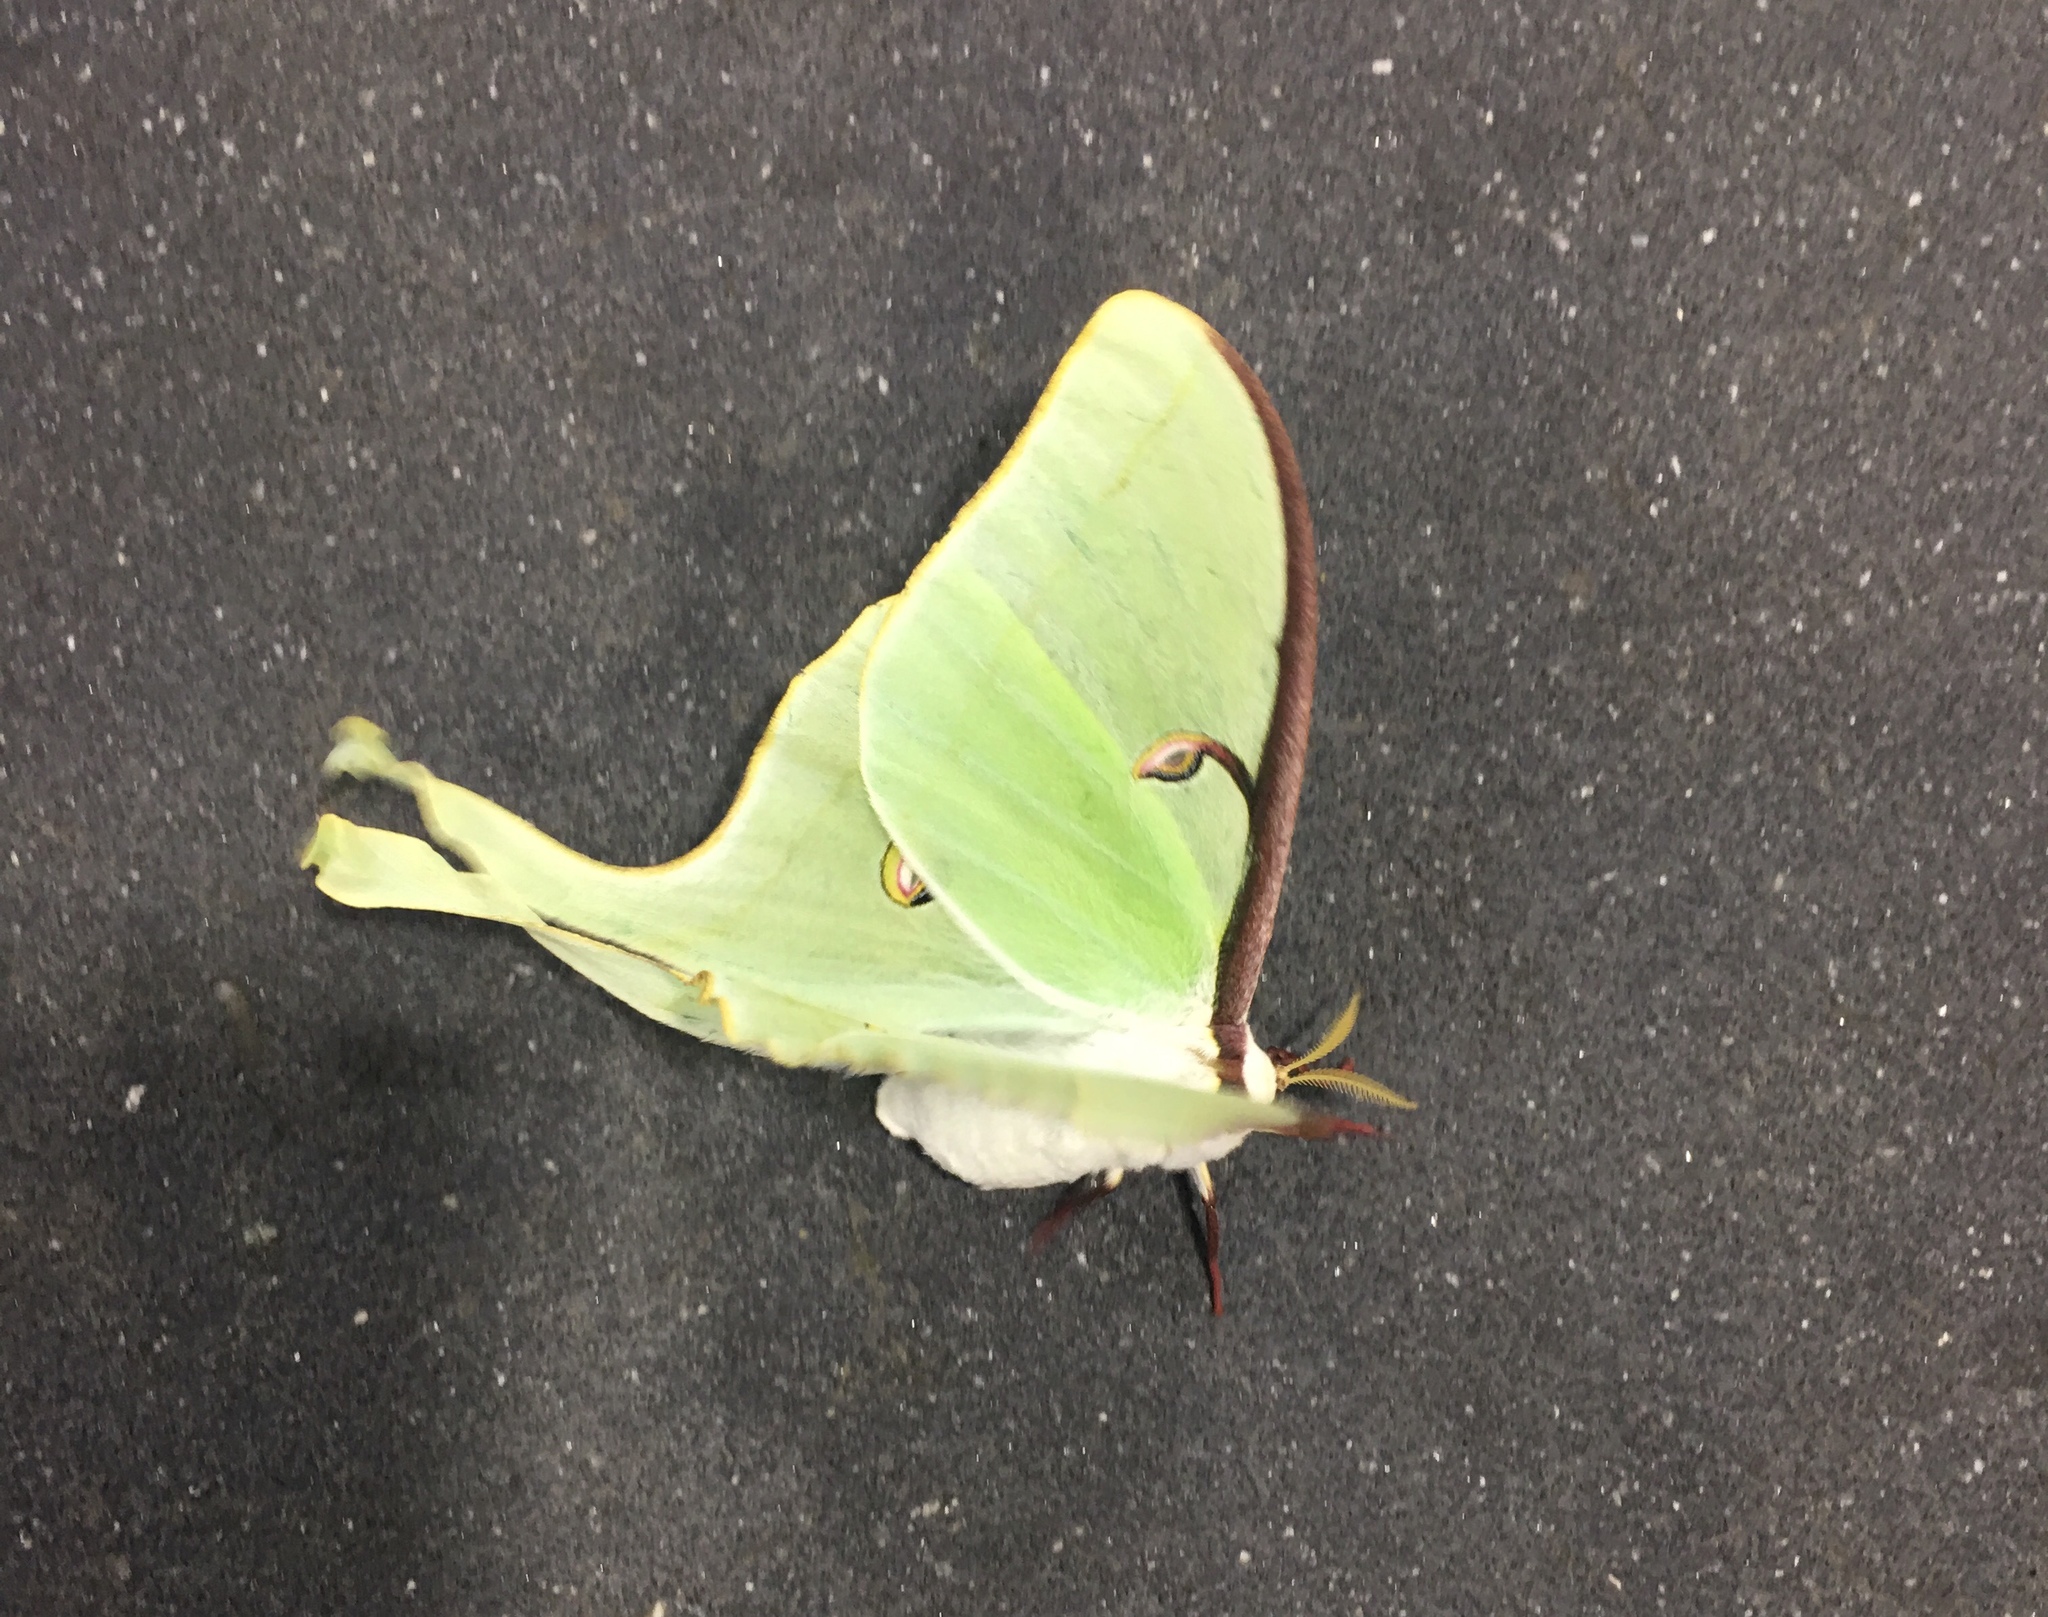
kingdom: Animalia
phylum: Arthropoda
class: Insecta
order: Lepidoptera
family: Saturniidae
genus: Actias
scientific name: Actias luna
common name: Luna moth
